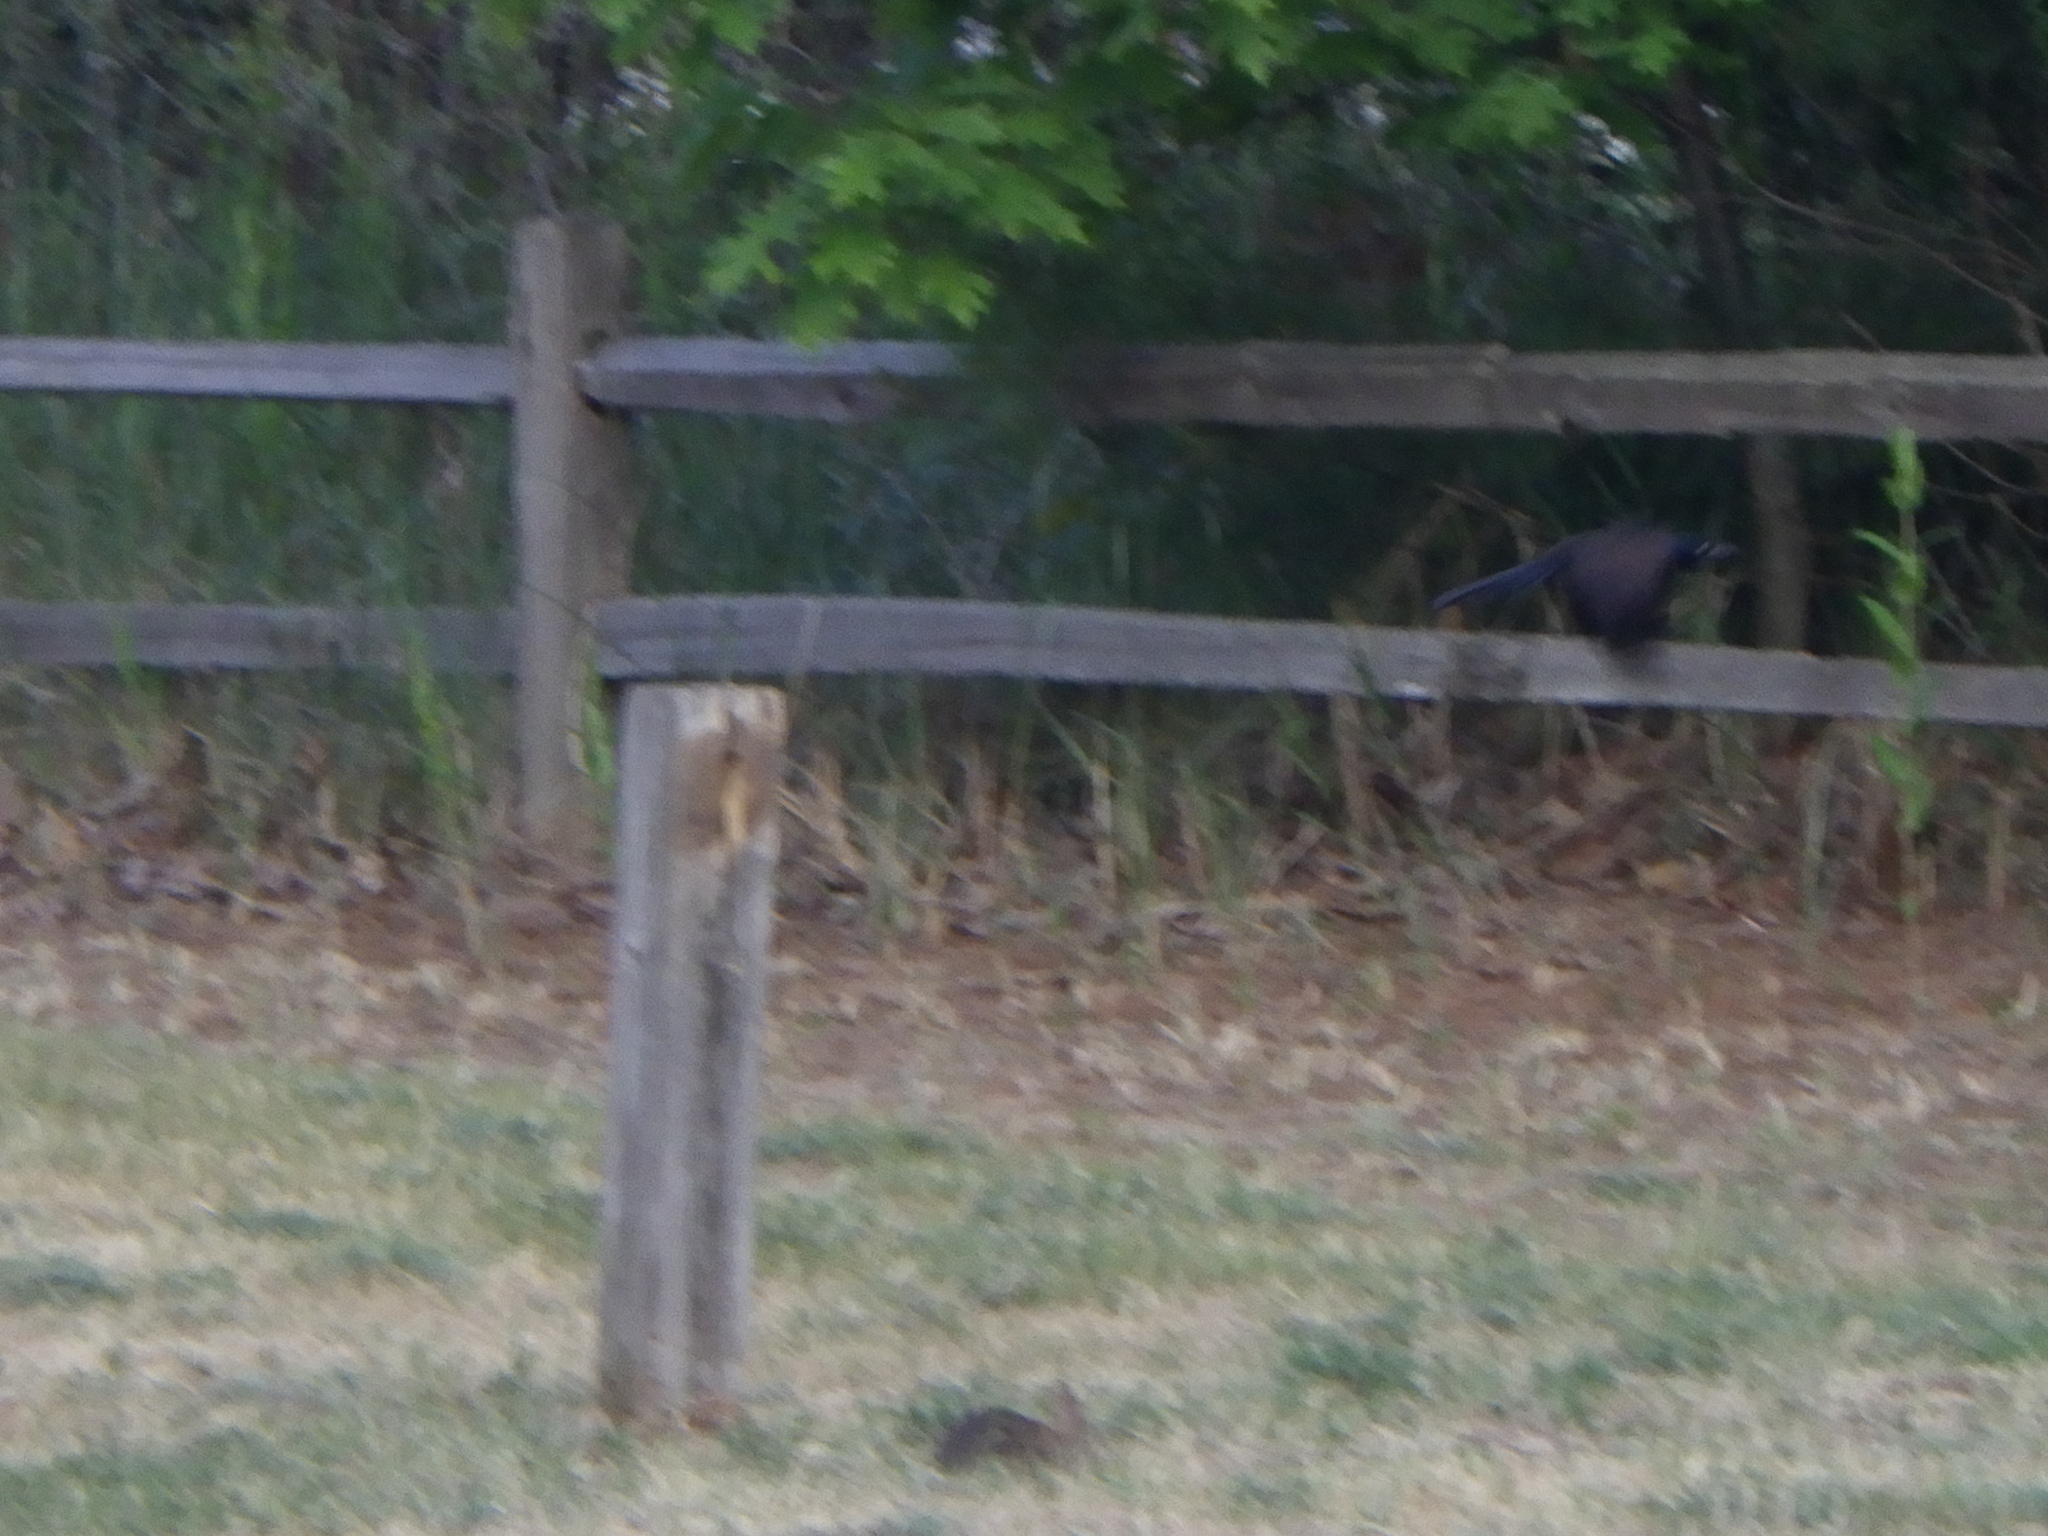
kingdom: Animalia
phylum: Chordata
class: Aves
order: Passeriformes
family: Icteridae
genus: Quiscalus
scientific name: Quiscalus quiscula
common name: Common grackle
